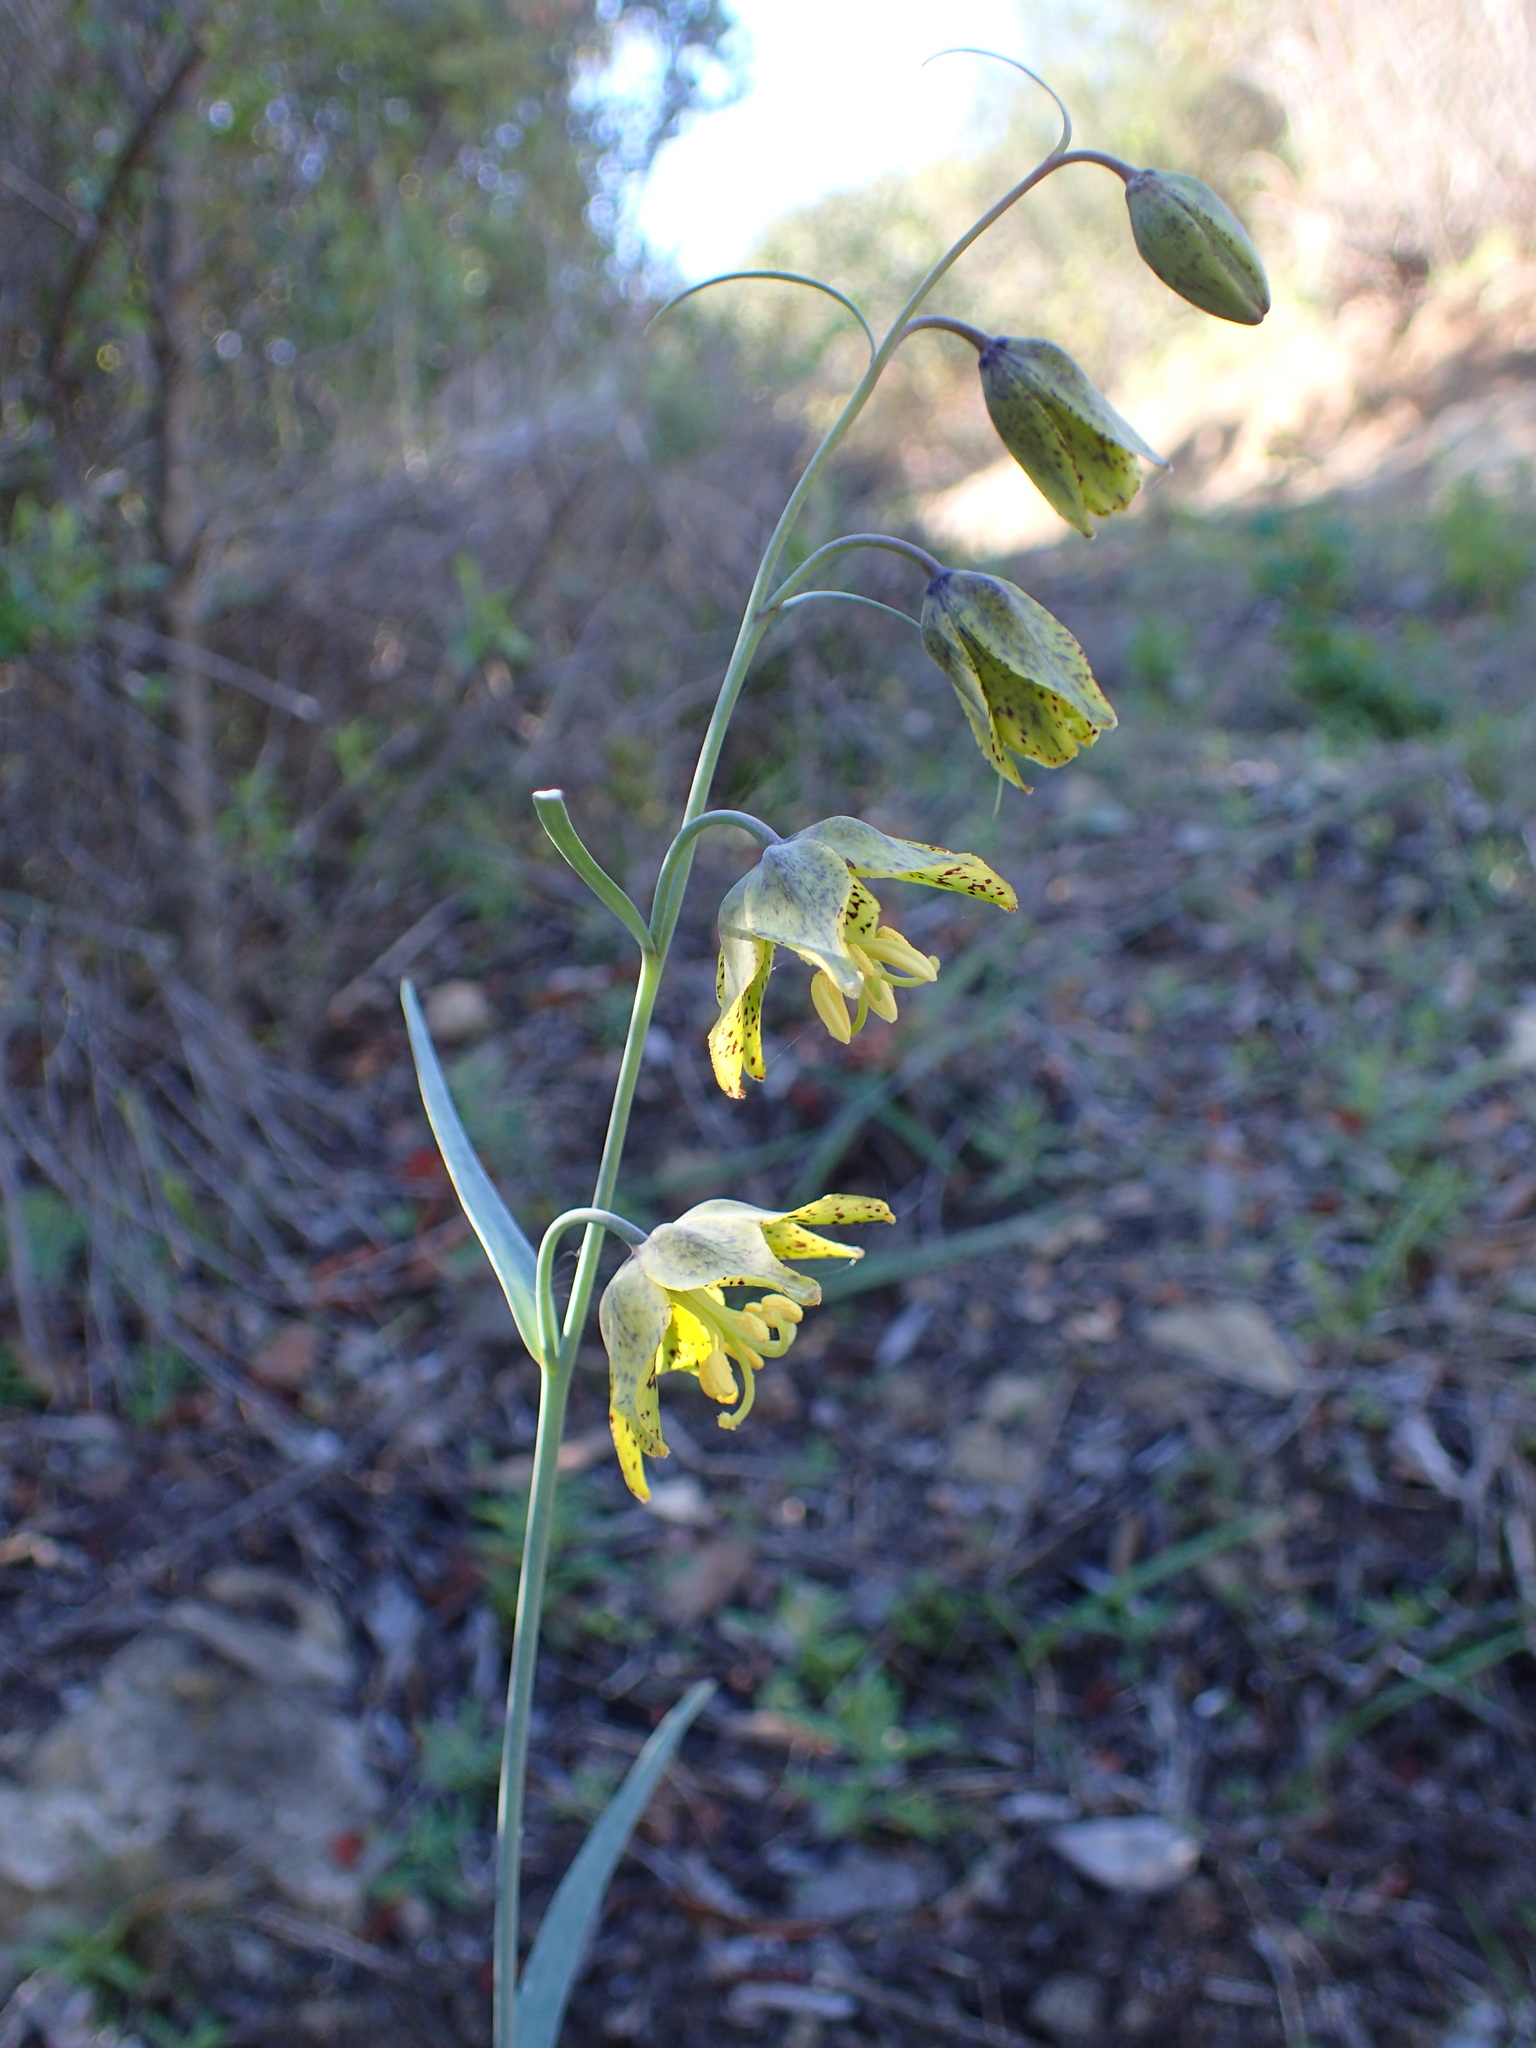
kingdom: Plantae
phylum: Tracheophyta
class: Liliopsida
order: Liliales
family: Liliaceae
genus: Fritillaria
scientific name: Fritillaria ojaiensis
